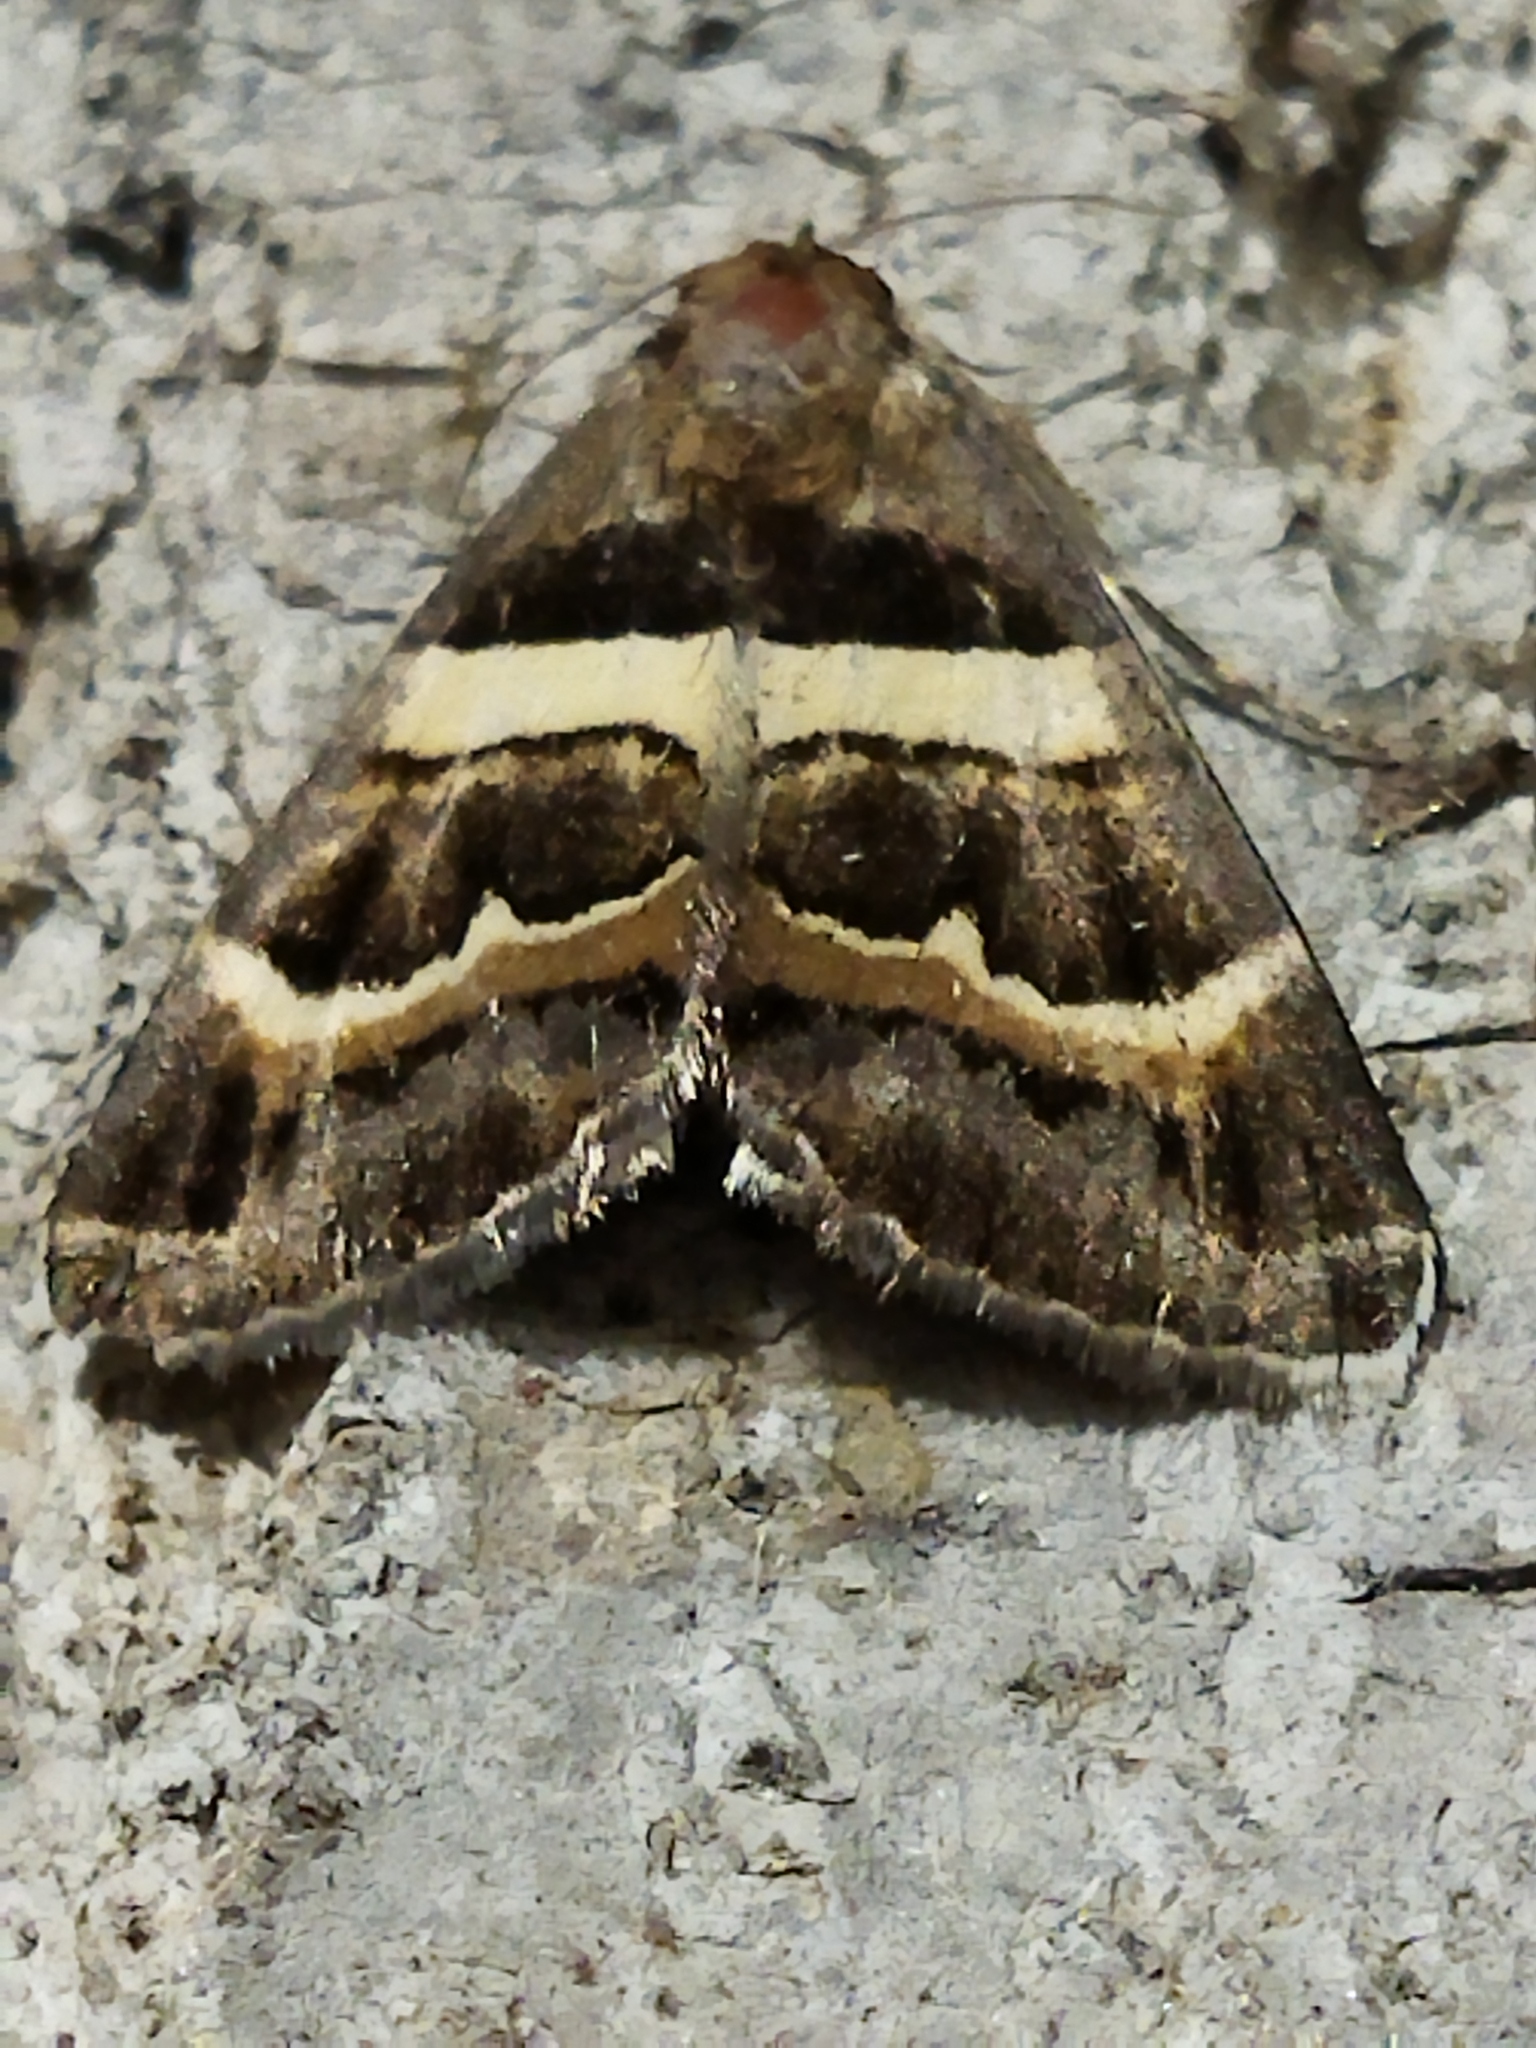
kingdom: Animalia
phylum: Arthropoda
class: Insecta
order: Lepidoptera
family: Erebidae
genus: Grammodes
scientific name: Grammodes stolida
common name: Geometrician
